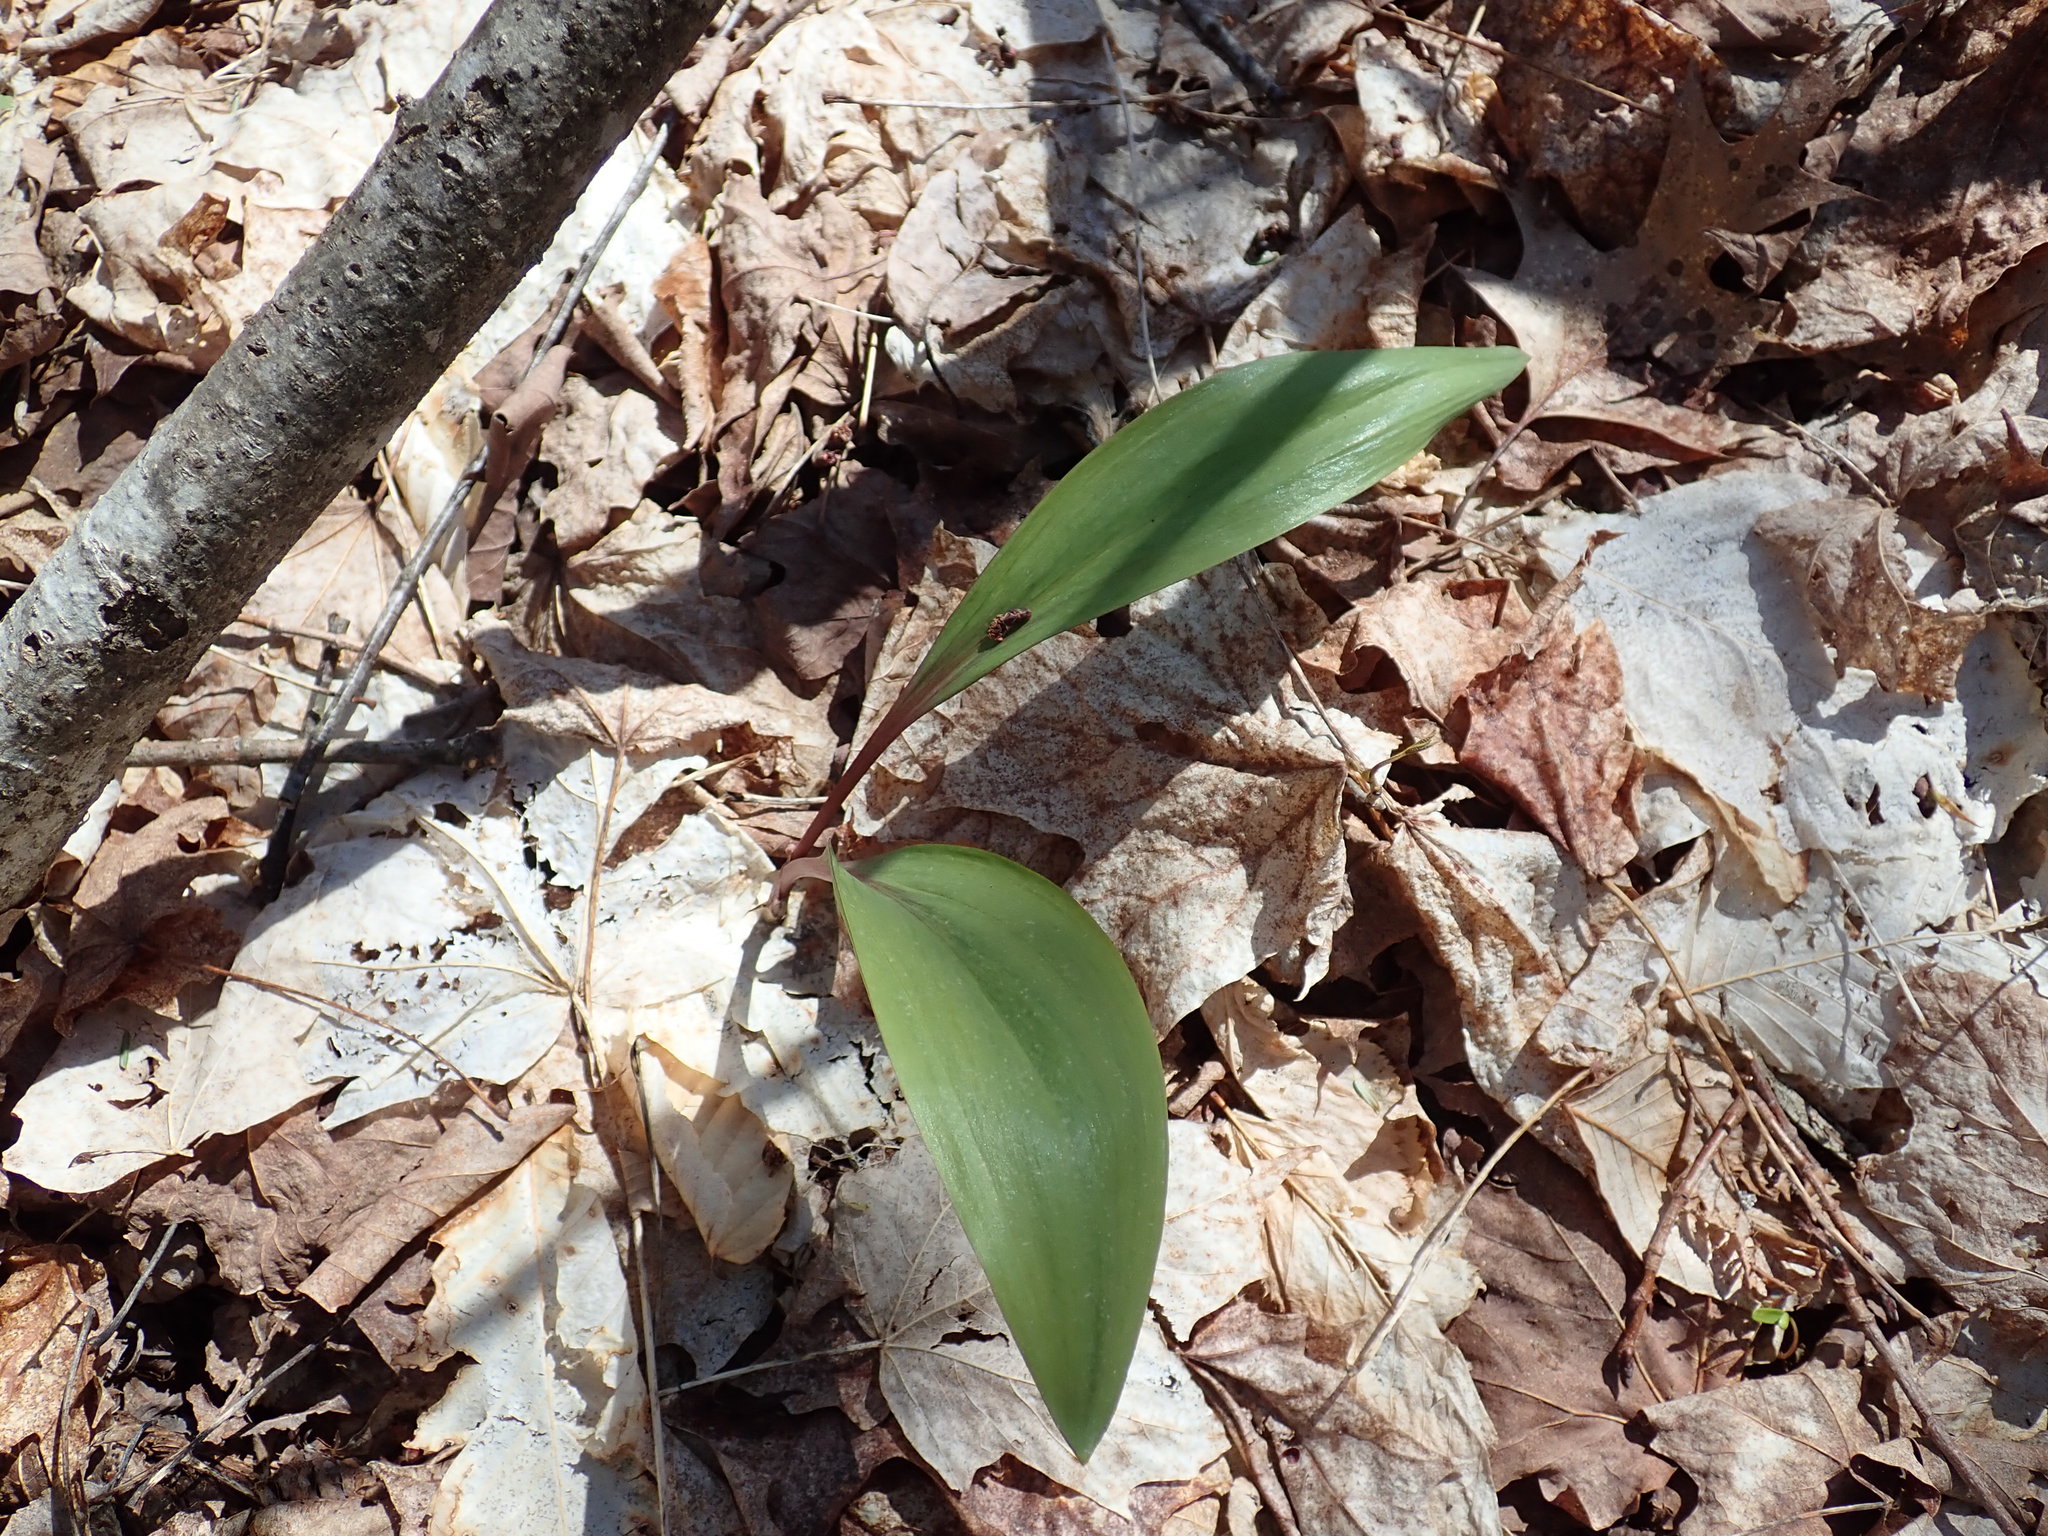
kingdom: Plantae
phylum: Tracheophyta
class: Liliopsida
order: Asparagales
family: Amaryllidaceae
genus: Allium
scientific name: Allium tricoccum
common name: Ramp
